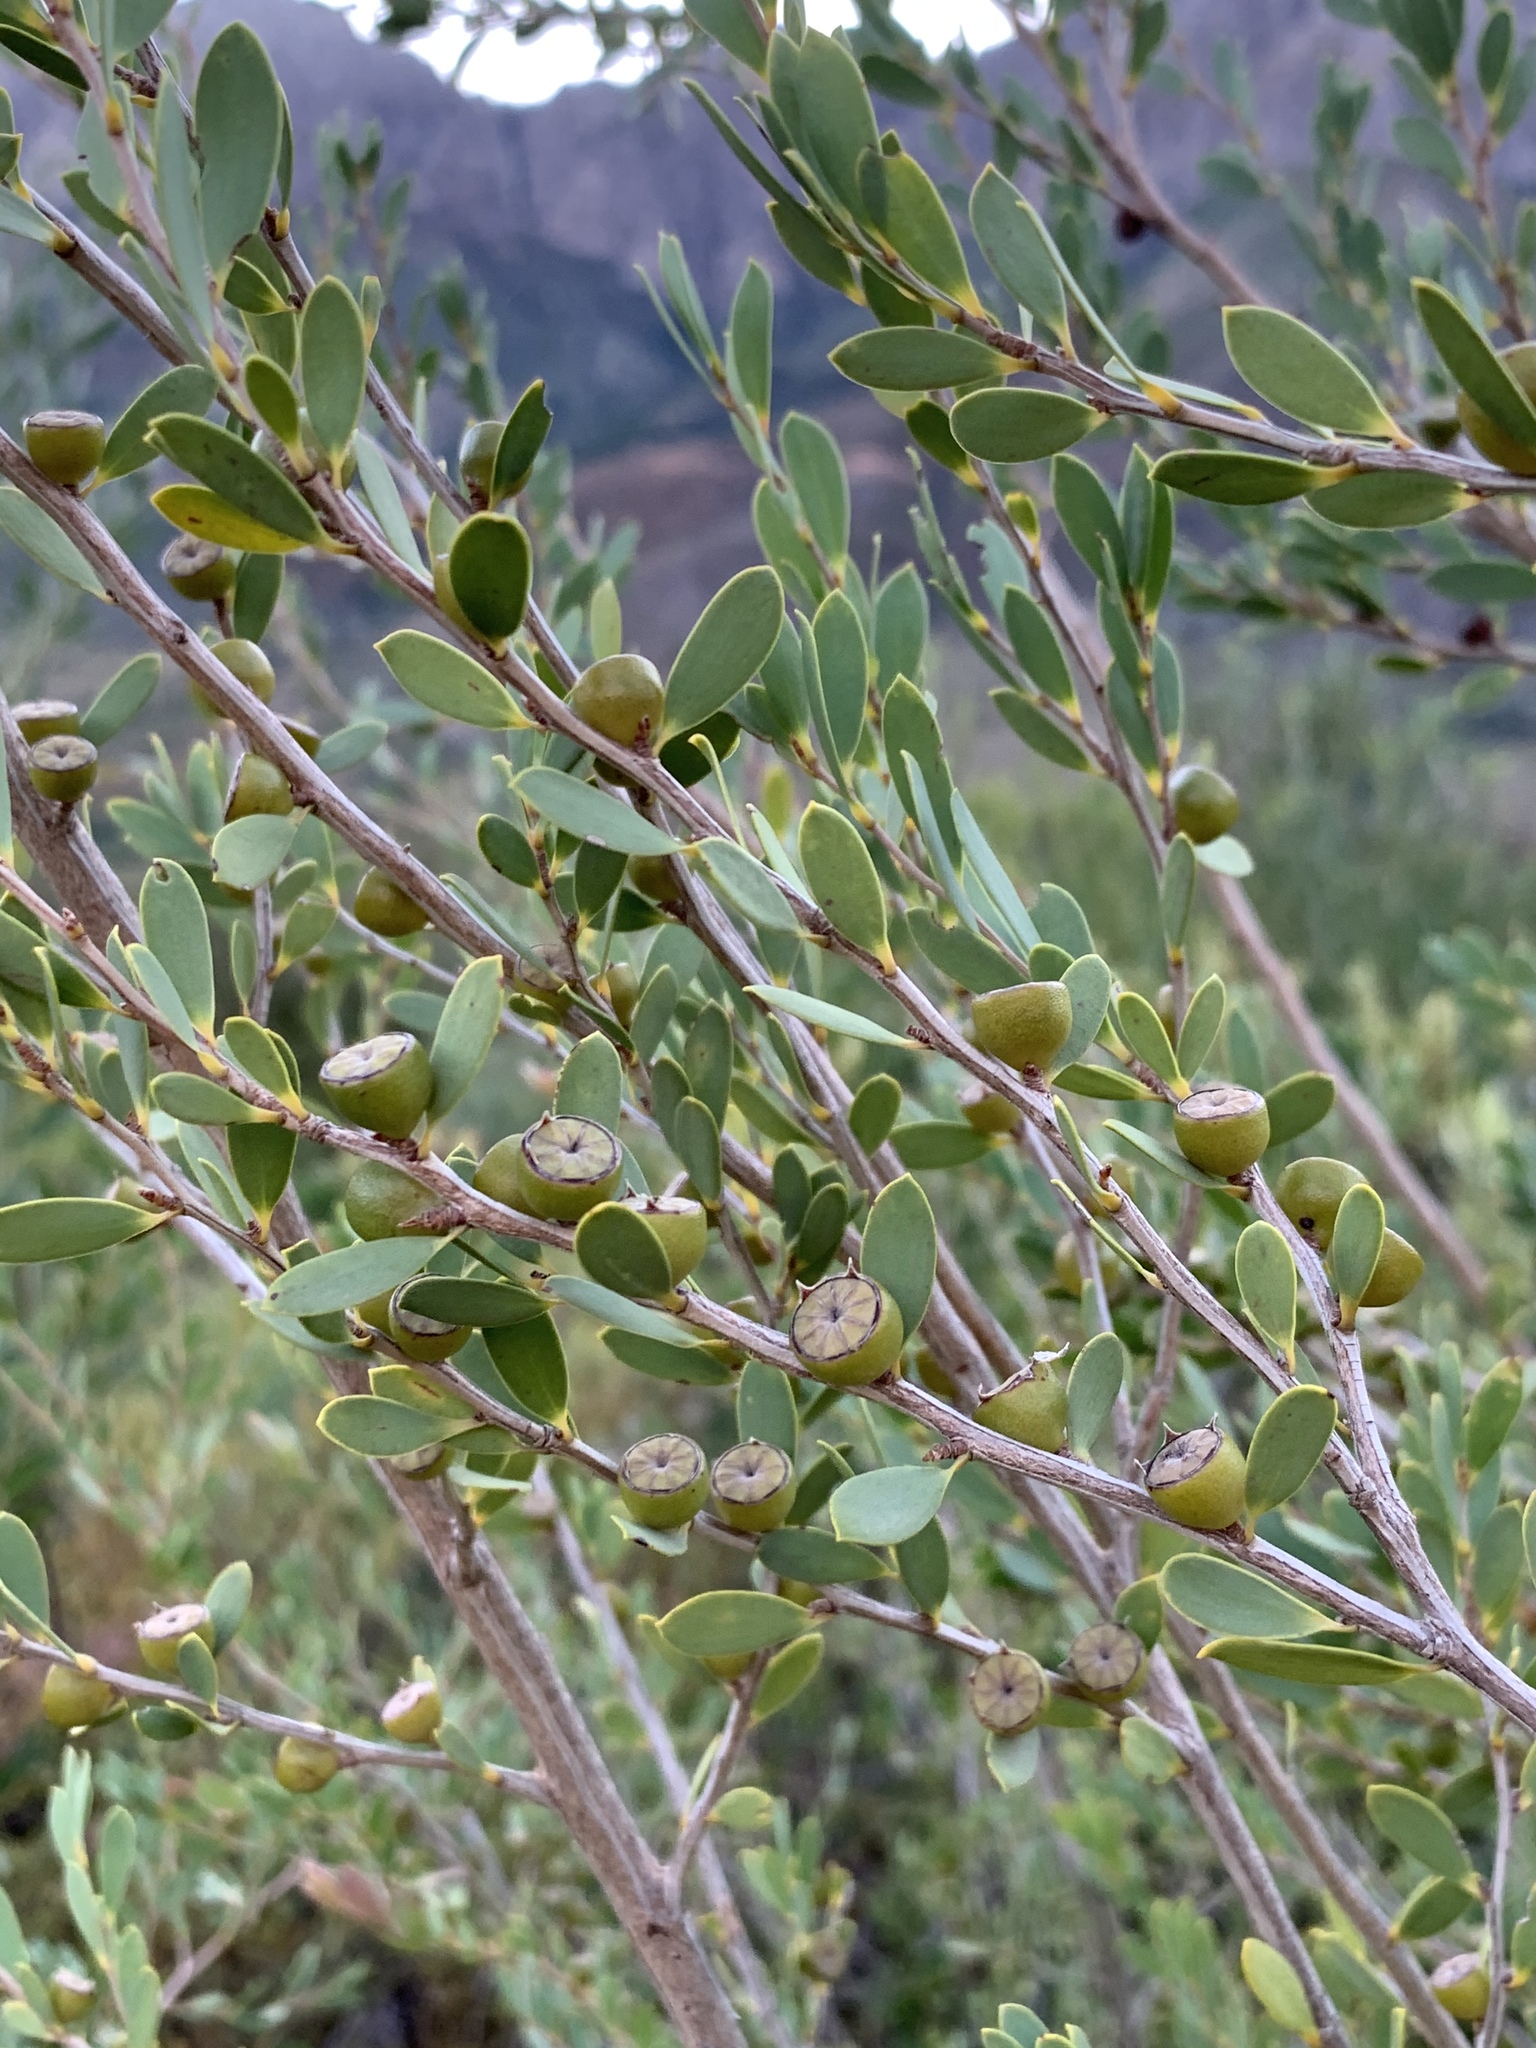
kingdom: Plantae
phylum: Tracheophyta
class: Magnoliopsida
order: Myrtales
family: Myrtaceae
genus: Leptospermum
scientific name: Leptospermum laevigatum
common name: Australian teatree
